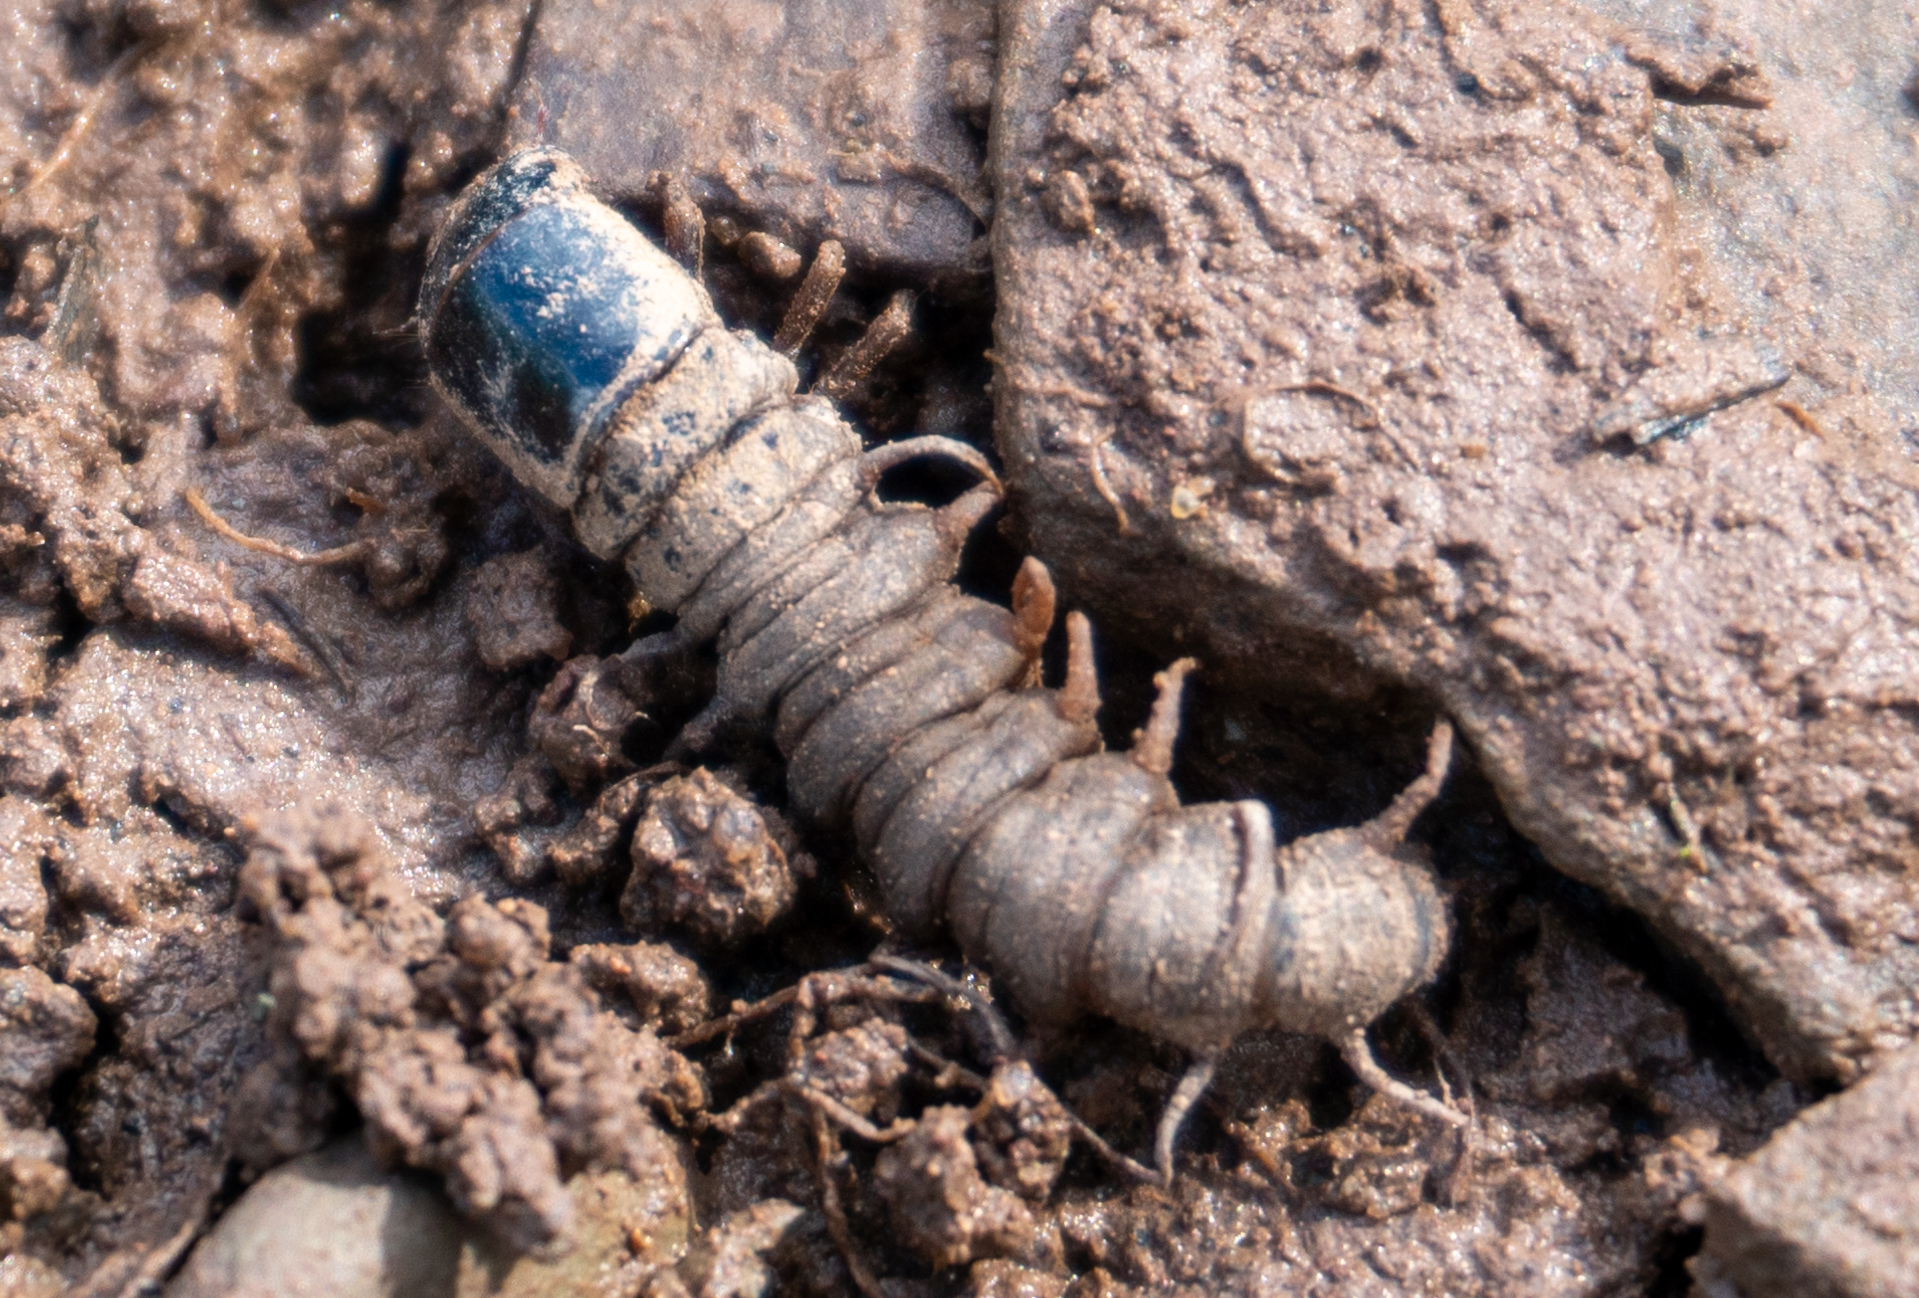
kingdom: Animalia
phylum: Arthropoda
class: Insecta
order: Megaloptera
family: Corydalidae
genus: Nigronia
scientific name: Nigronia serricornis
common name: Serrate dark fishfly
